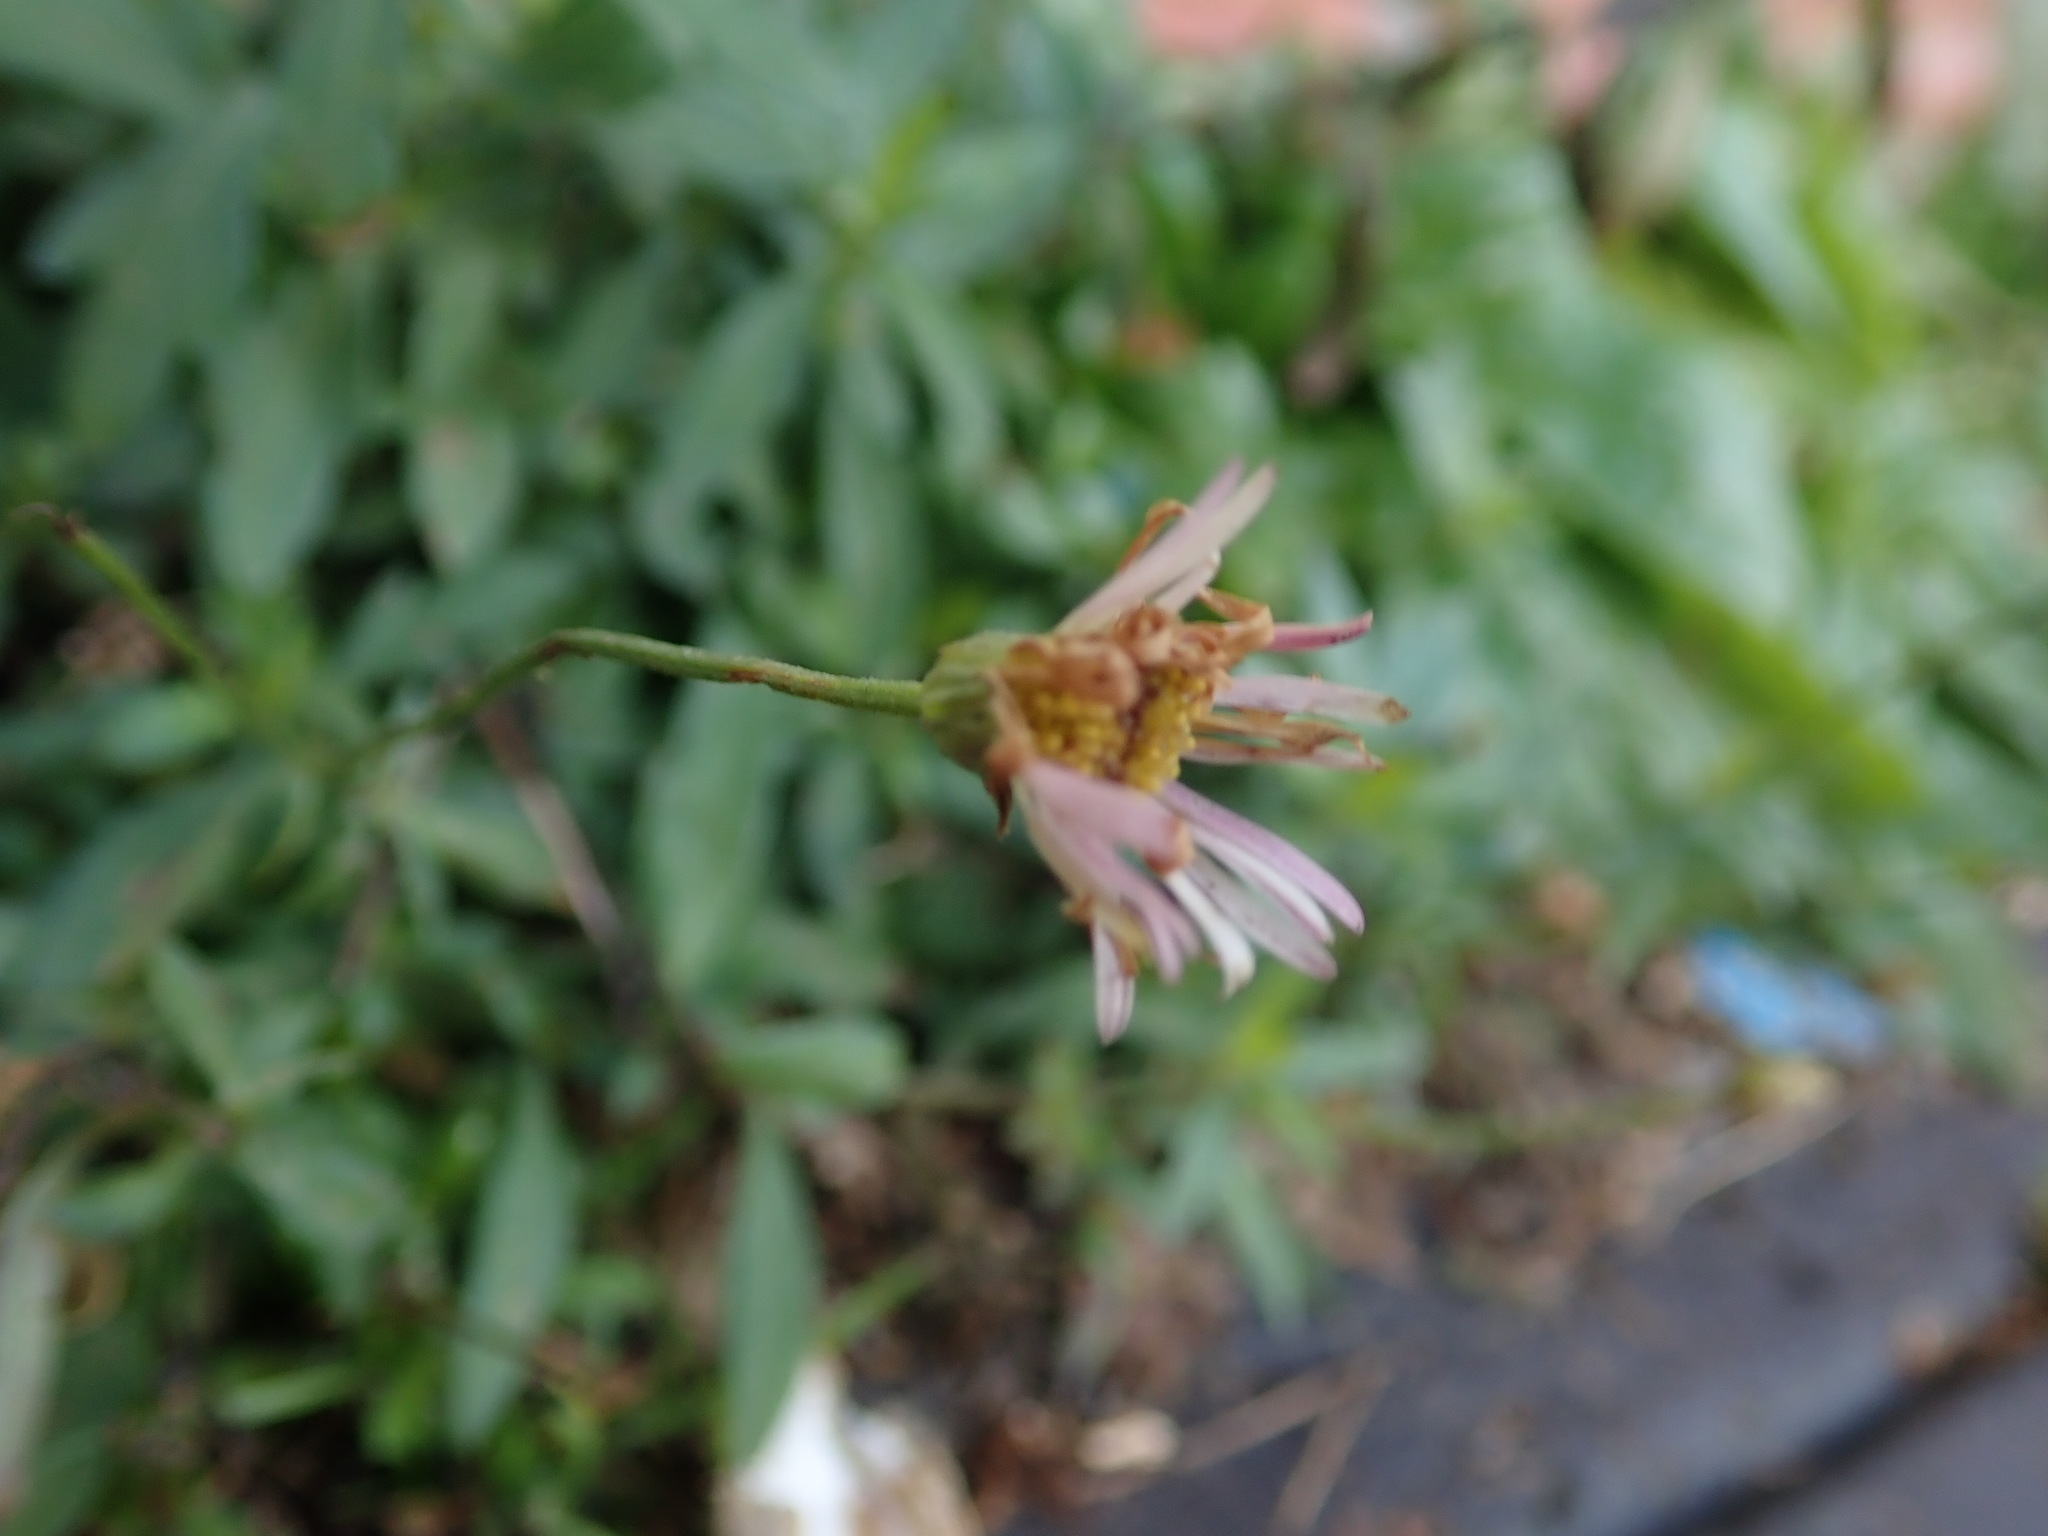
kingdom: Plantae
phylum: Tracheophyta
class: Magnoliopsida
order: Asterales
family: Asteraceae
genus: Erigeron
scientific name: Erigeron karvinskianus
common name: Mexican fleabane
